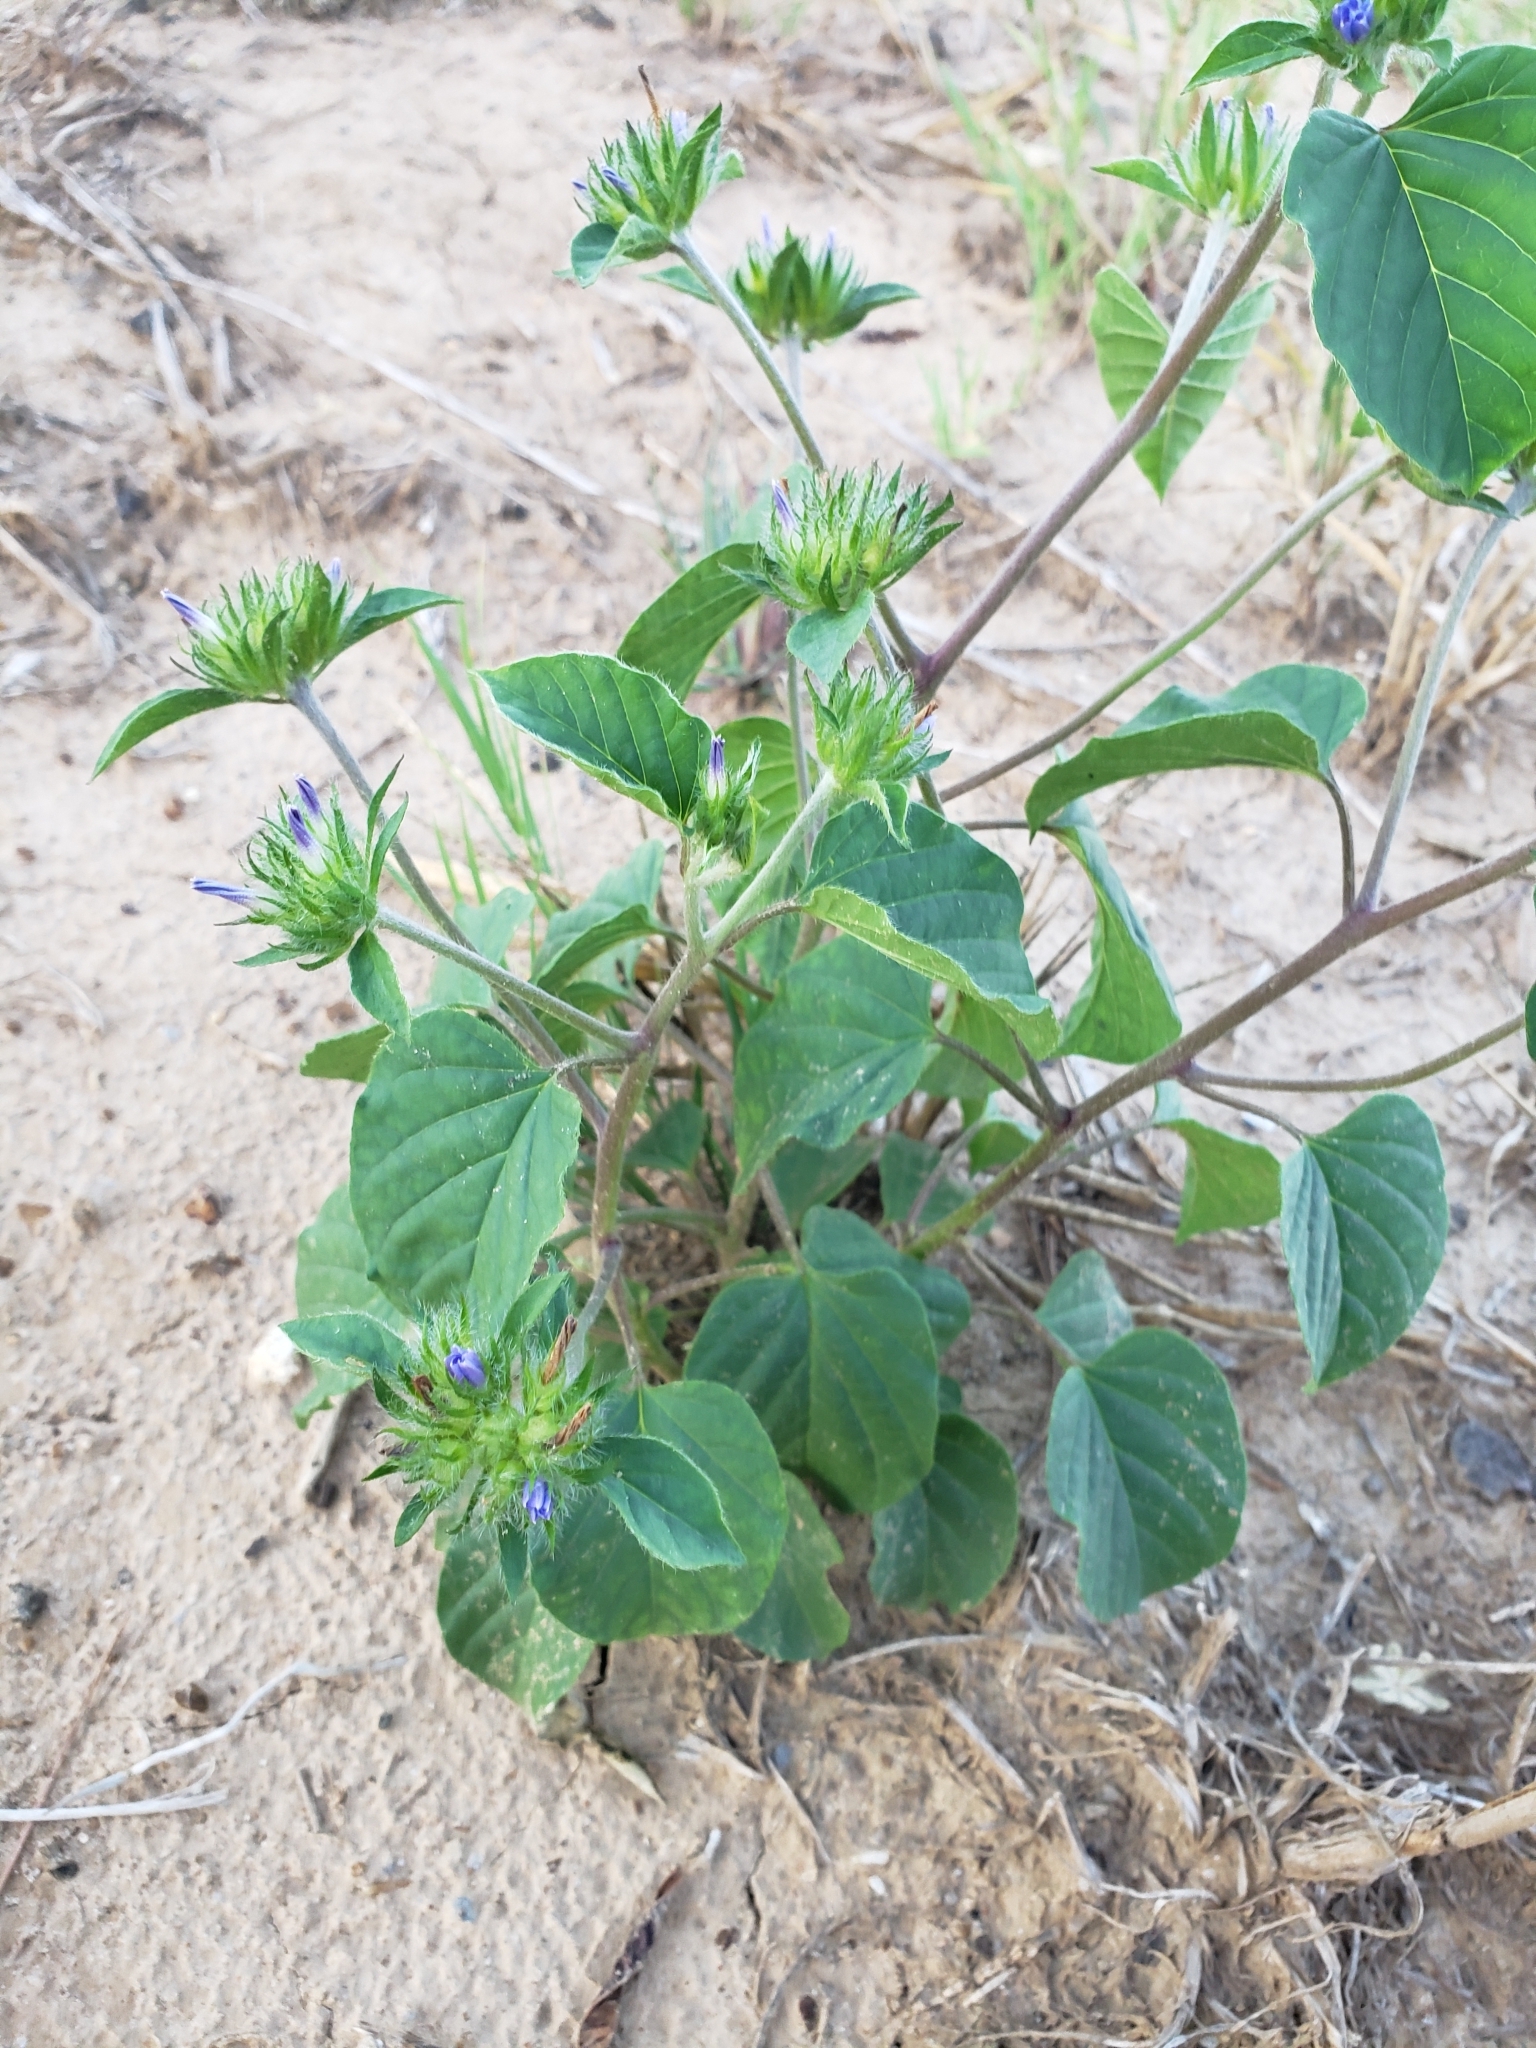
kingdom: Plantae
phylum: Tracheophyta
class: Magnoliopsida
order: Solanales
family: Convolvulaceae
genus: Jacquemontia
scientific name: Jacquemontia tamnifolia
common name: Hairy clustervine
